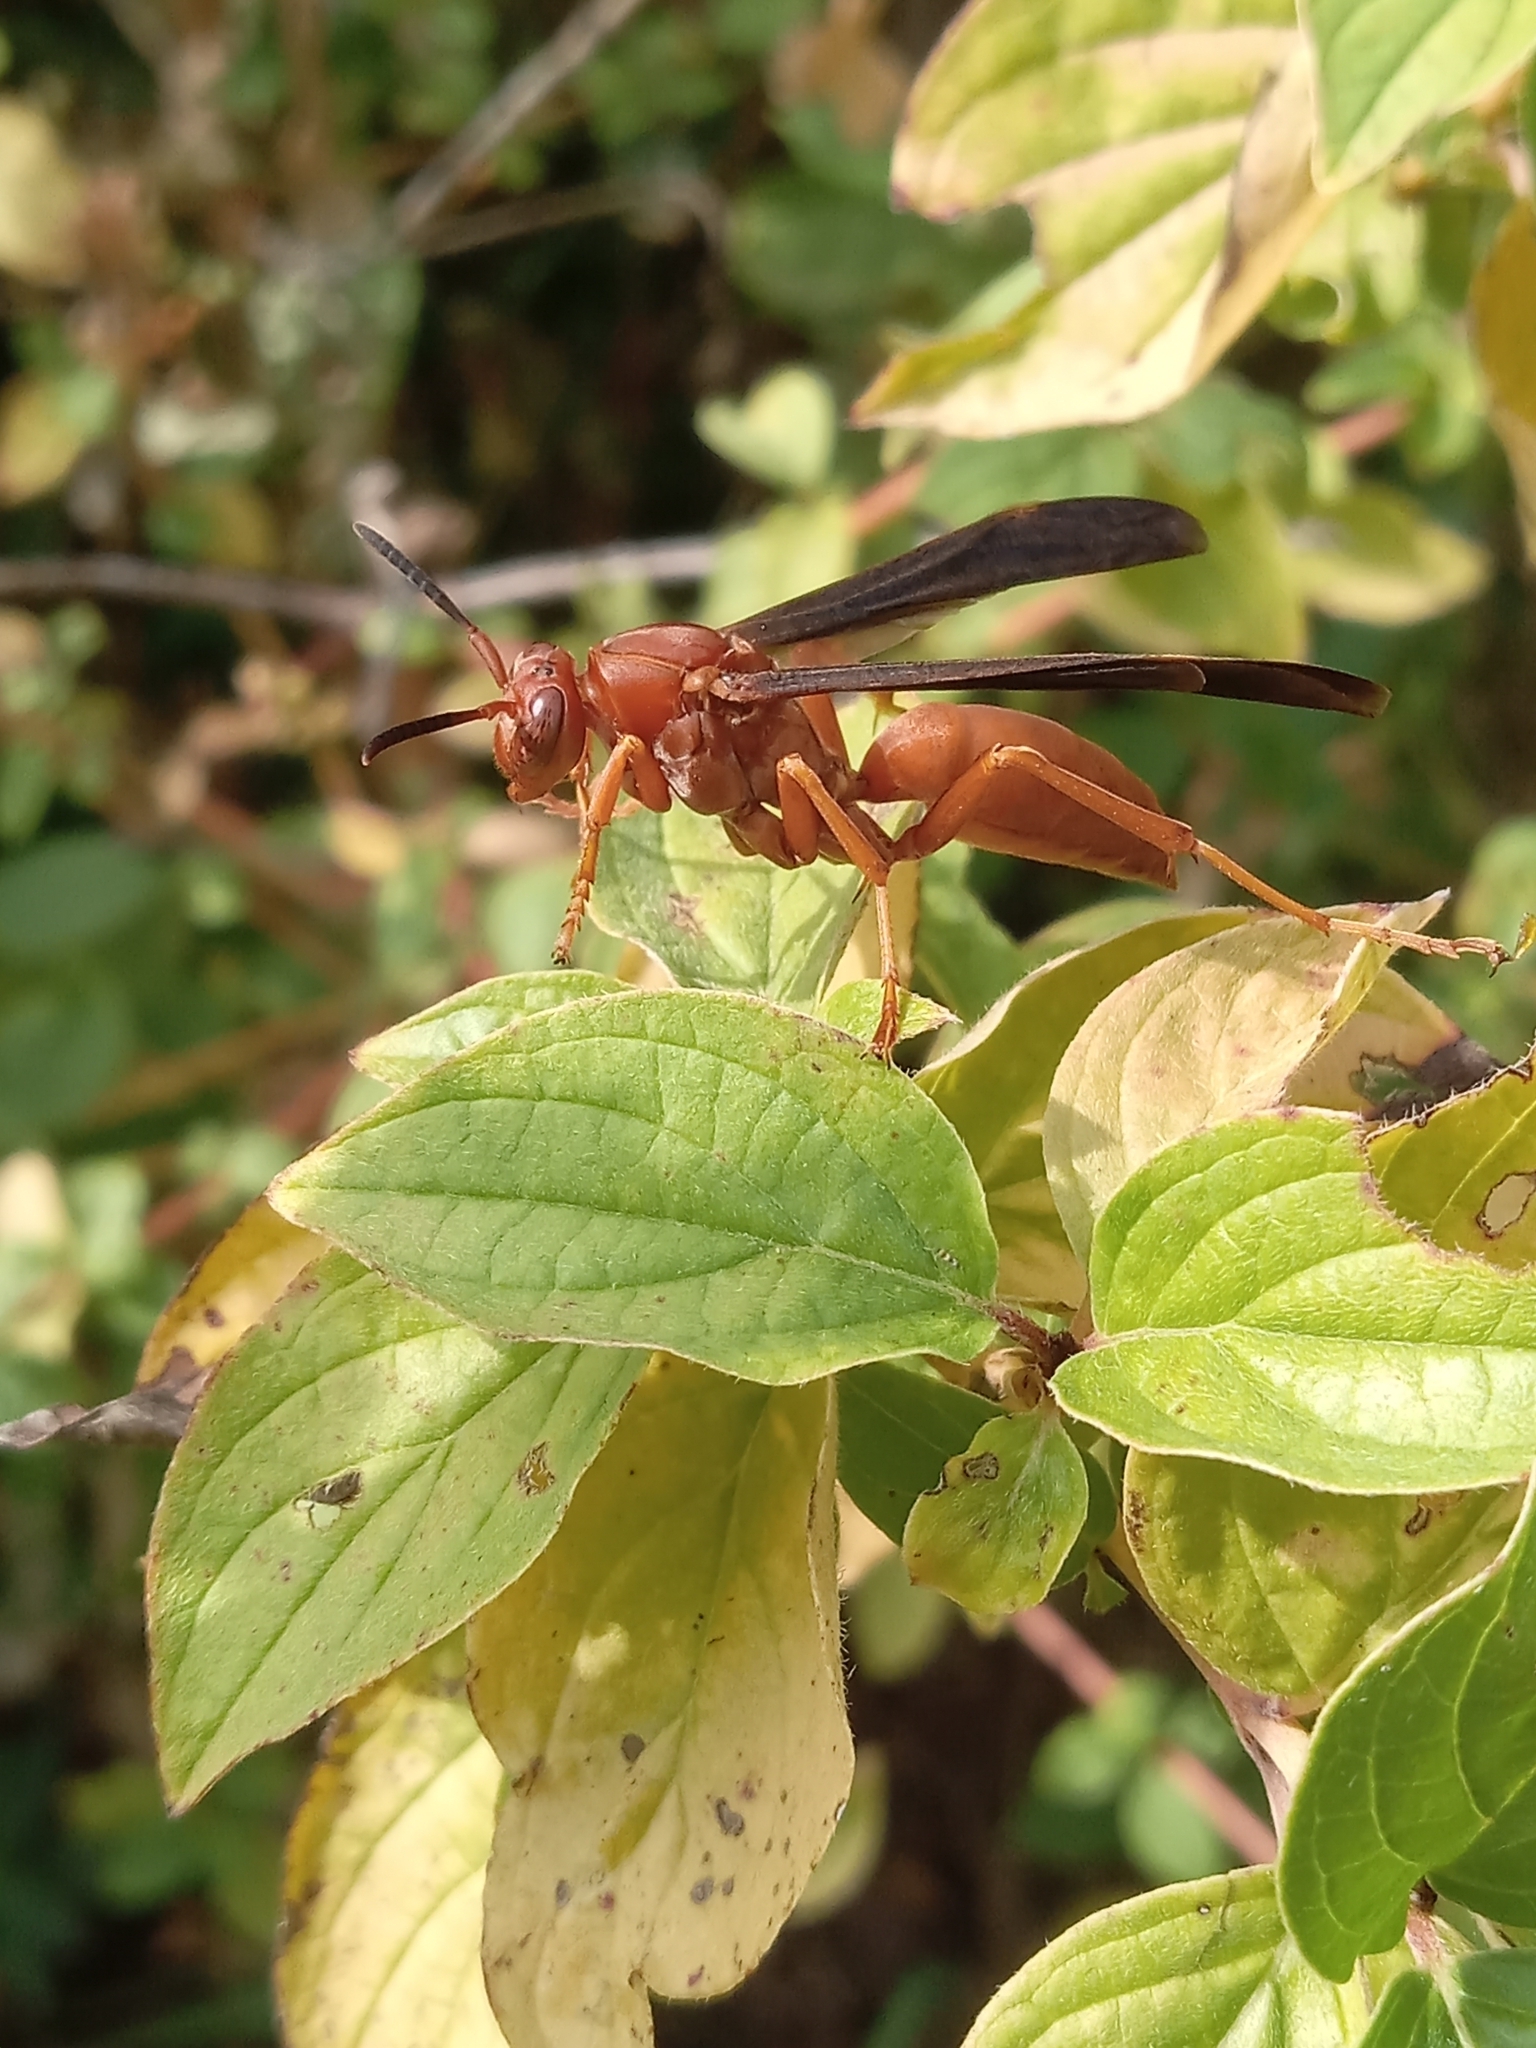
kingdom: Animalia
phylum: Arthropoda
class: Insecta
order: Hymenoptera
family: Eumenidae
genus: Polistes
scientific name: Polistes carolina
